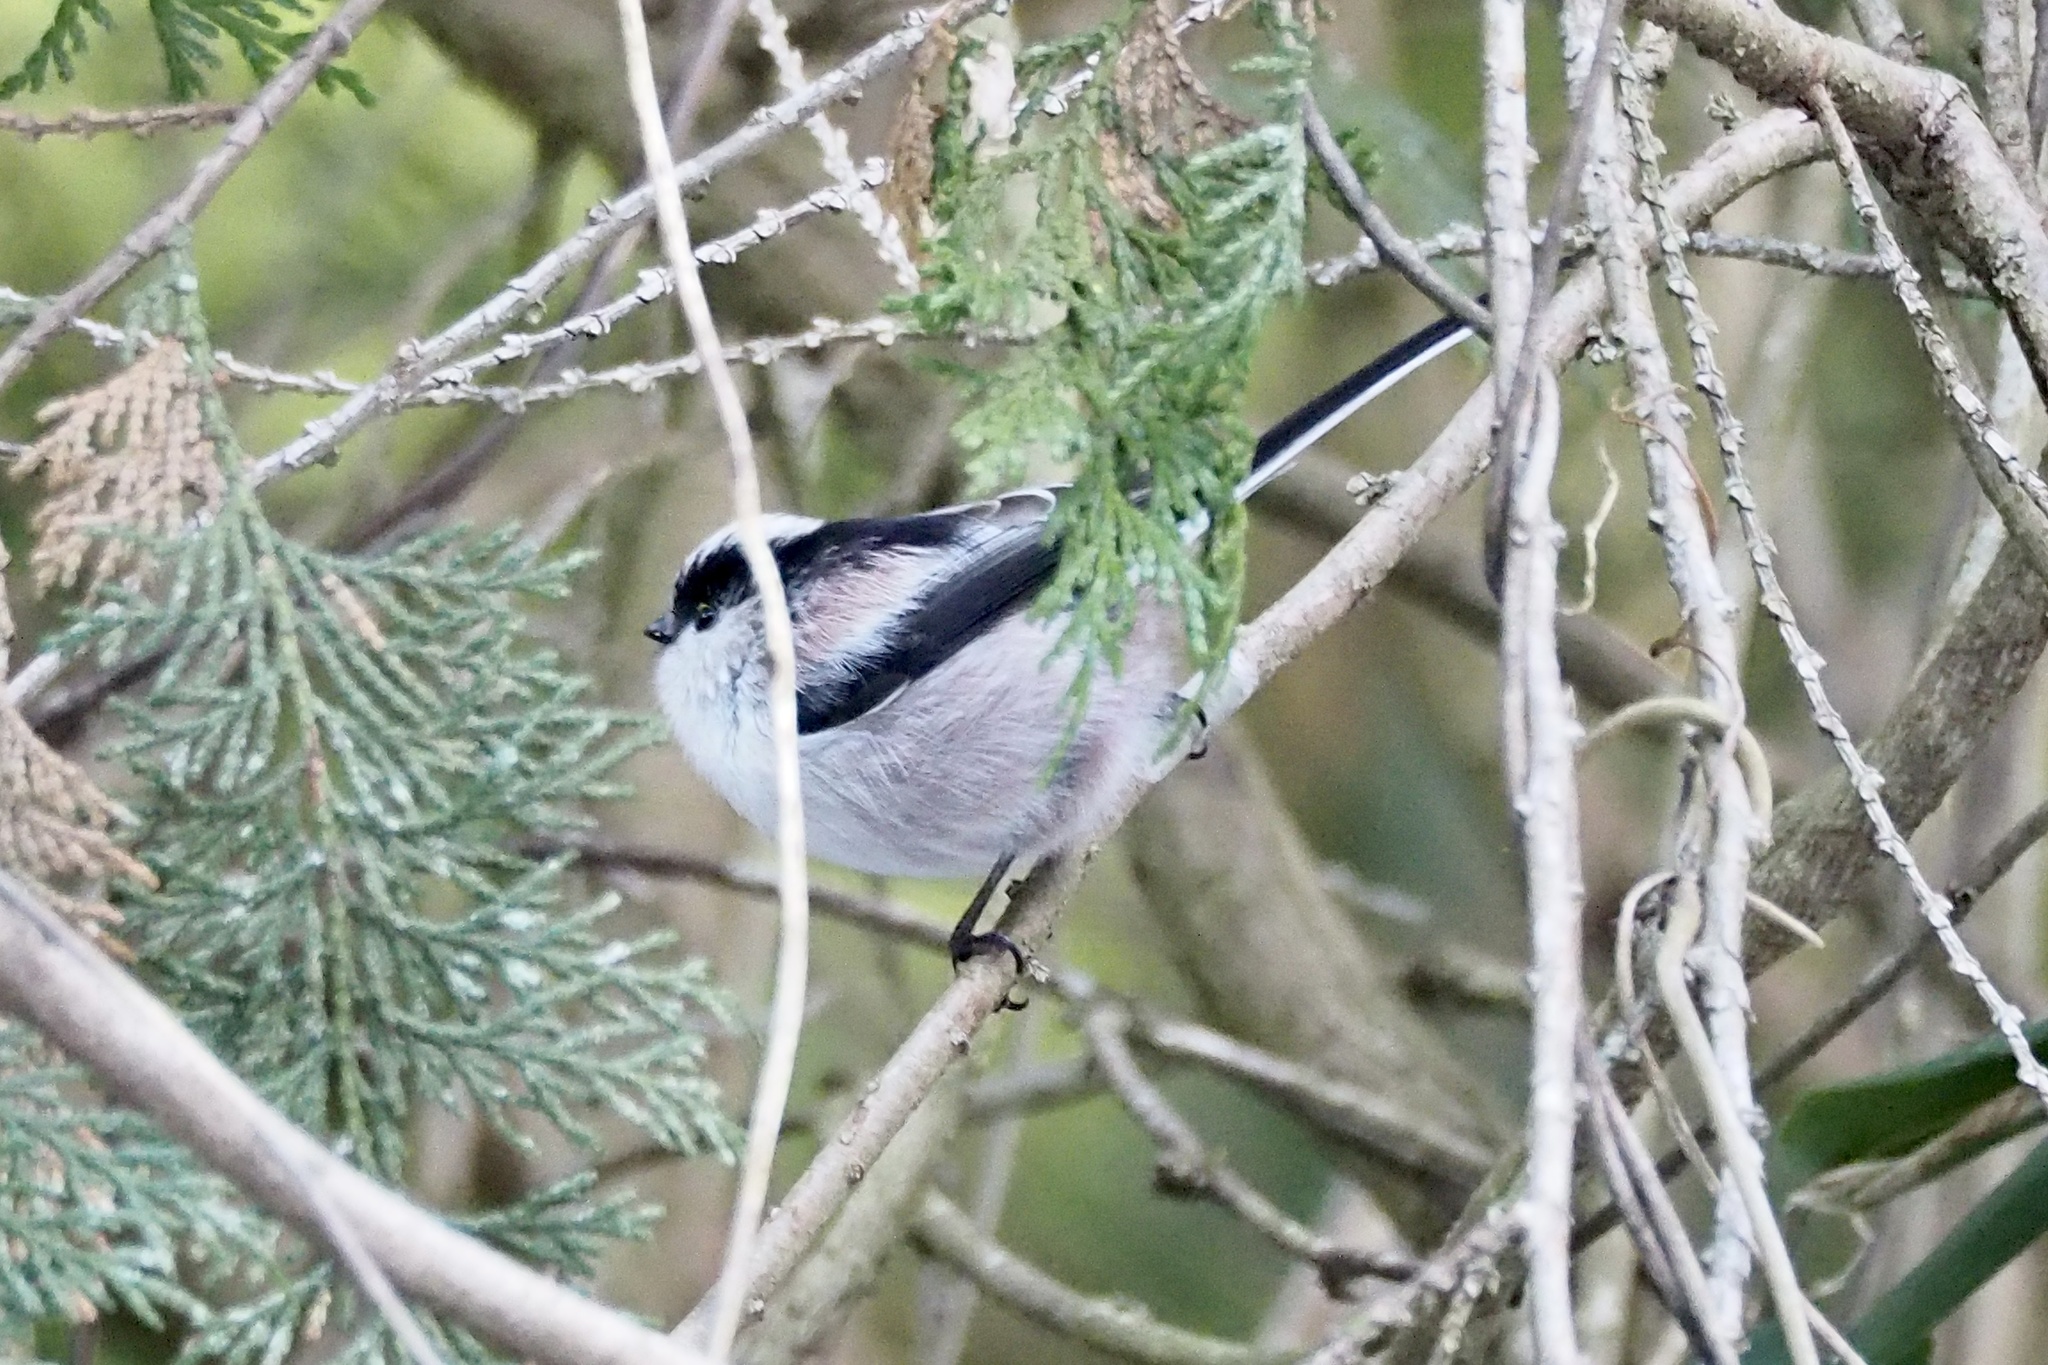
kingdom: Animalia
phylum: Chordata
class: Aves
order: Passeriformes
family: Aegithalidae
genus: Aegithalos
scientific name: Aegithalos caudatus
